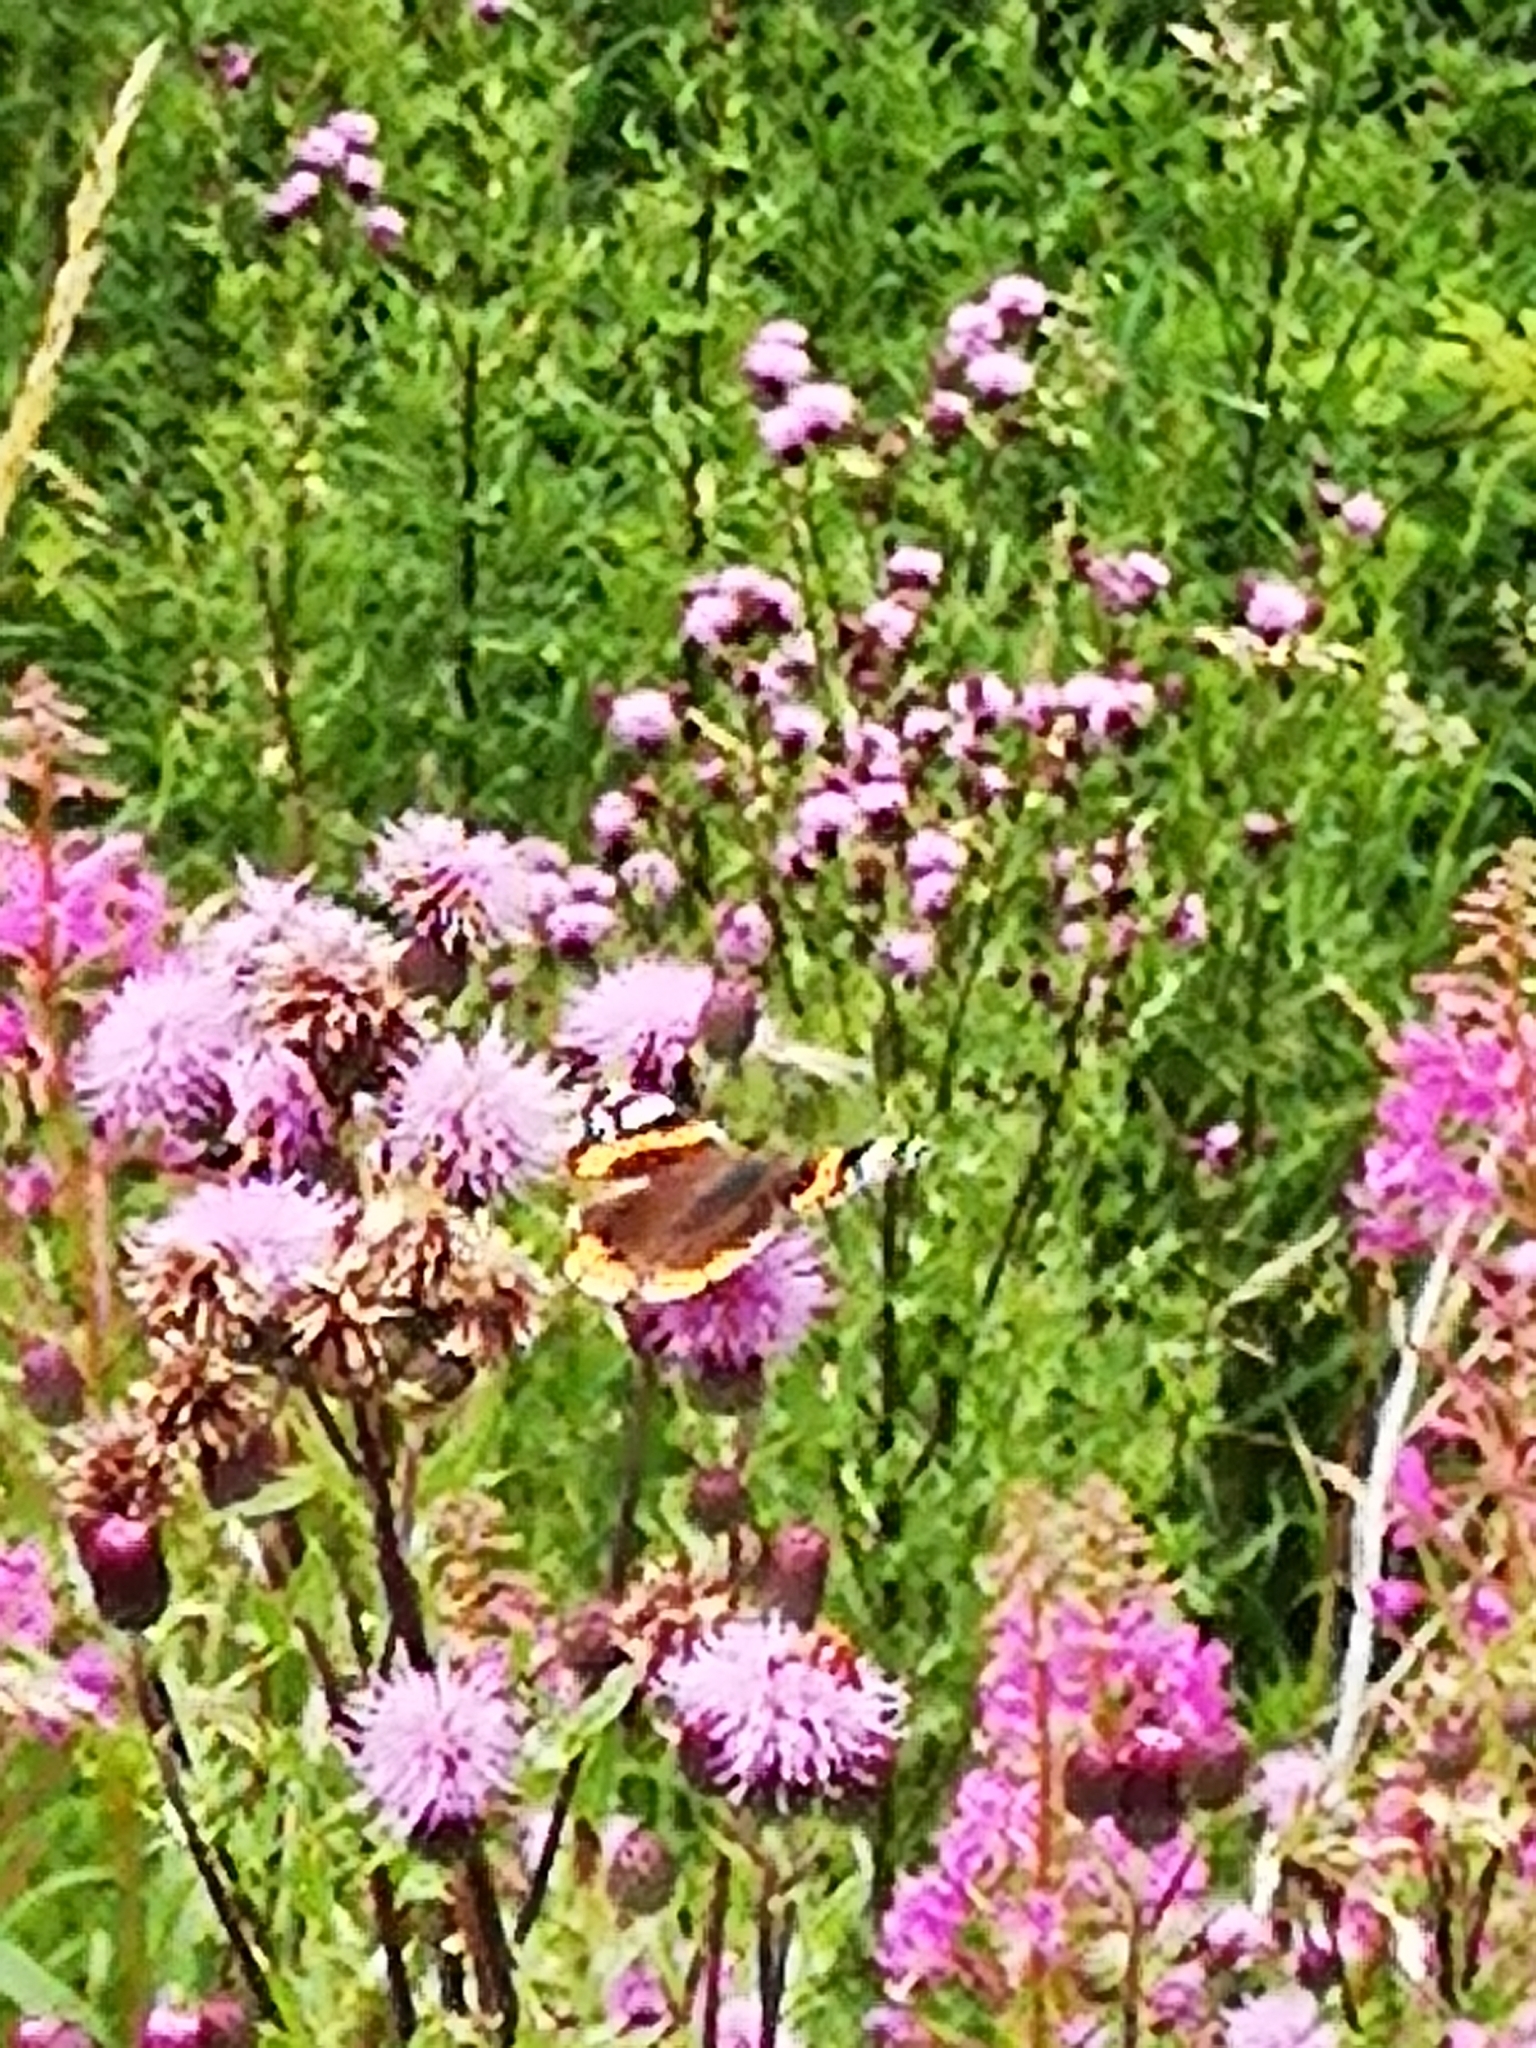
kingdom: Animalia
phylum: Arthropoda
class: Insecta
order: Lepidoptera
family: Nymphalidae
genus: Vanessa
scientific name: Vanessa atalanta
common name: Red admiral
